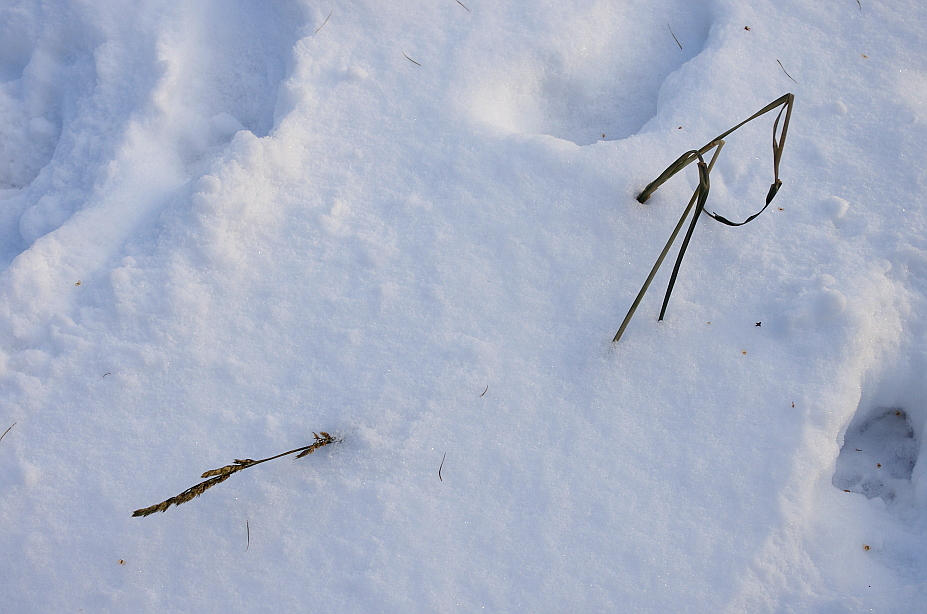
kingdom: Plantae
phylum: Tracheophyta
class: Liliopsida
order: Poales
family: Poaceae
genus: Dactylis
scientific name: Dactylis glomerata
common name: Orchardgrass
